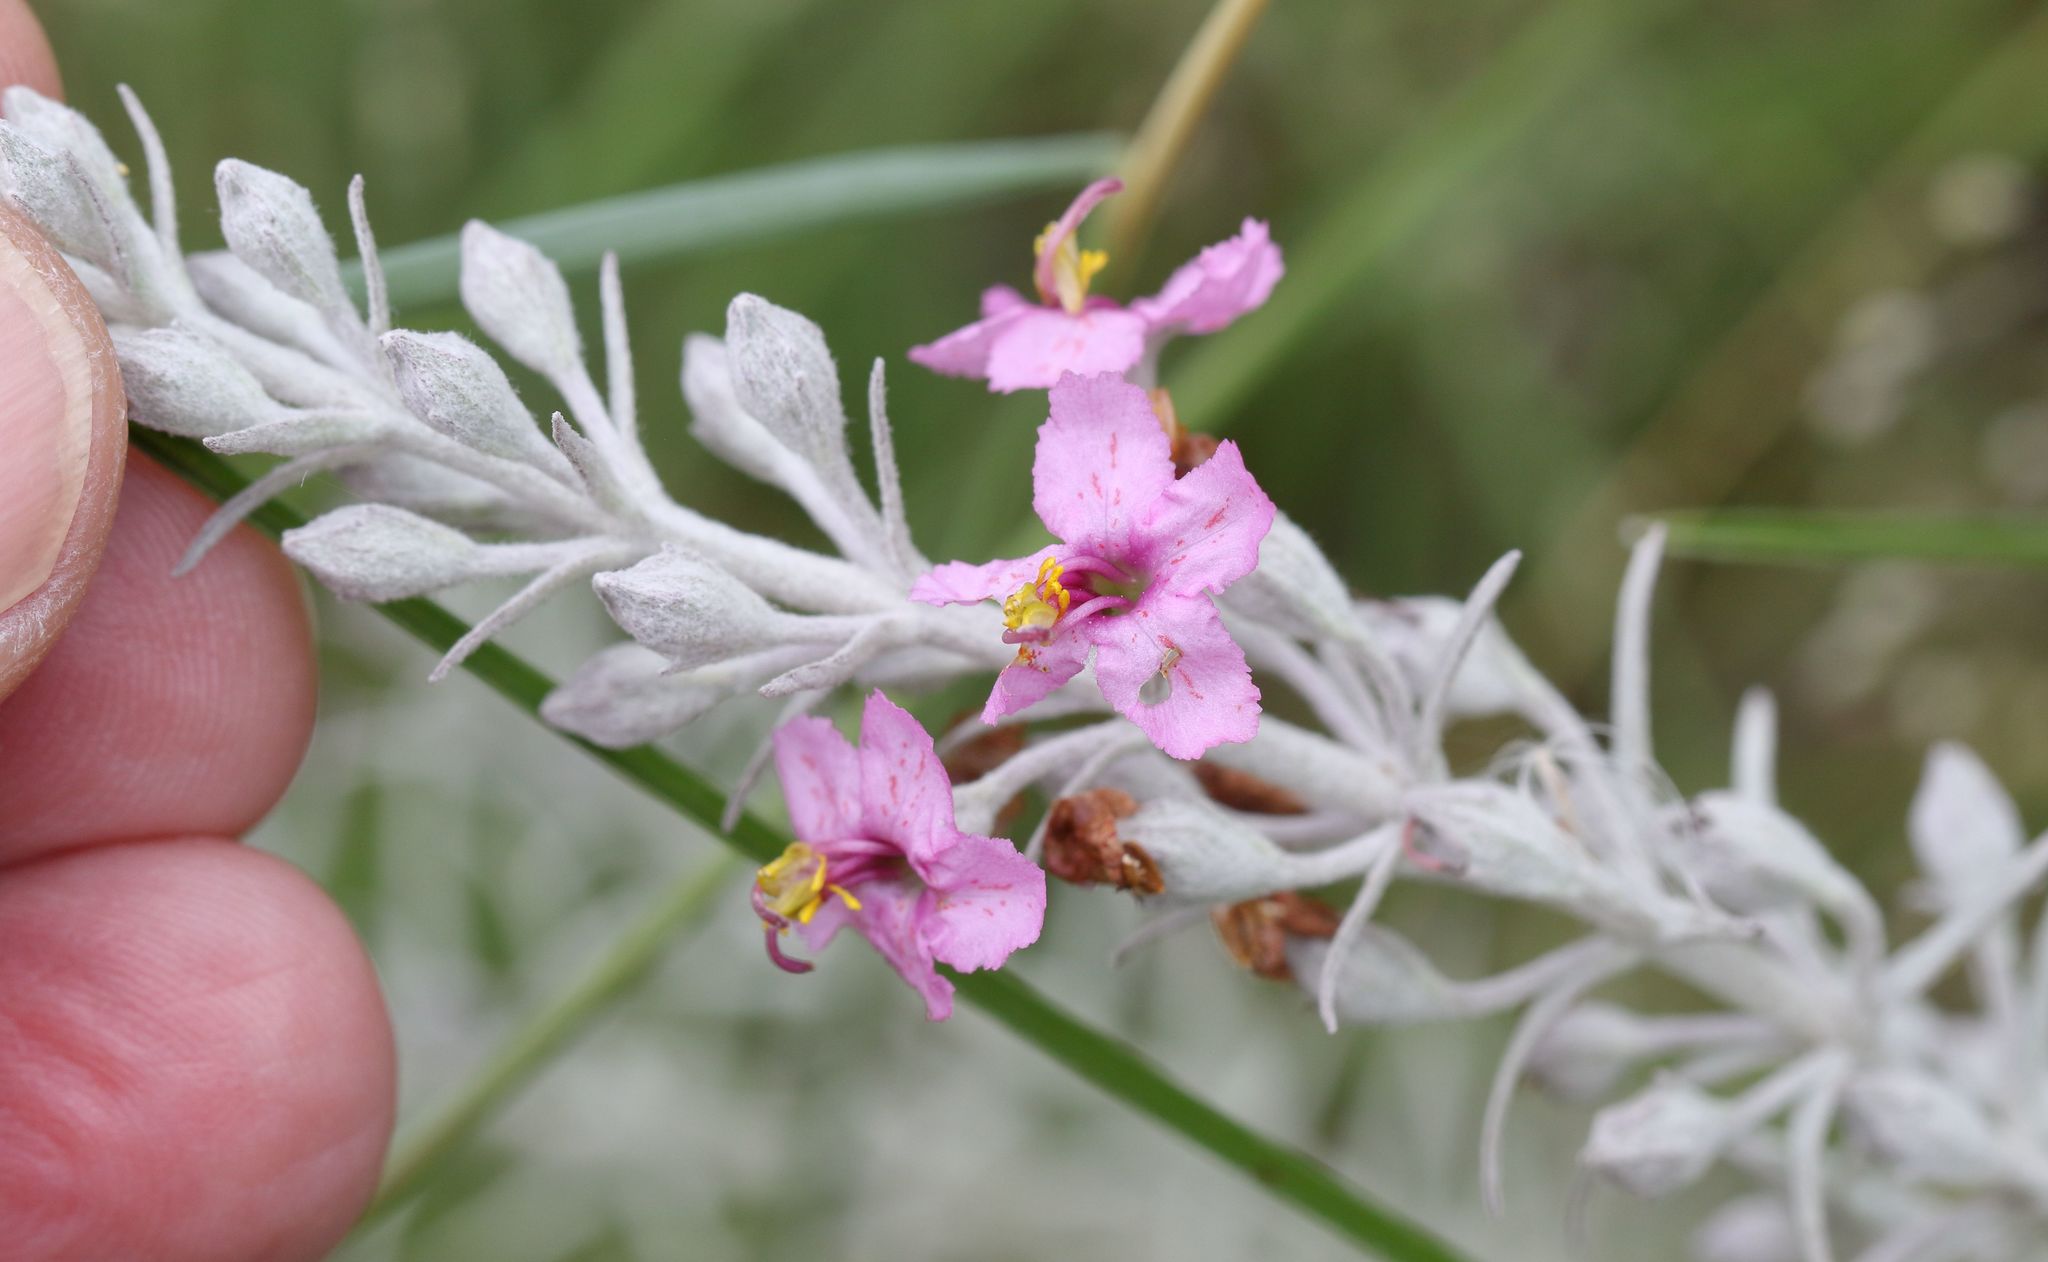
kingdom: Plantae
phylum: Tracheophyta
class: Magnoliopsida
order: Lamiales
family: Orobanchaceae
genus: Sopubia
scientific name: Sopubia cana
